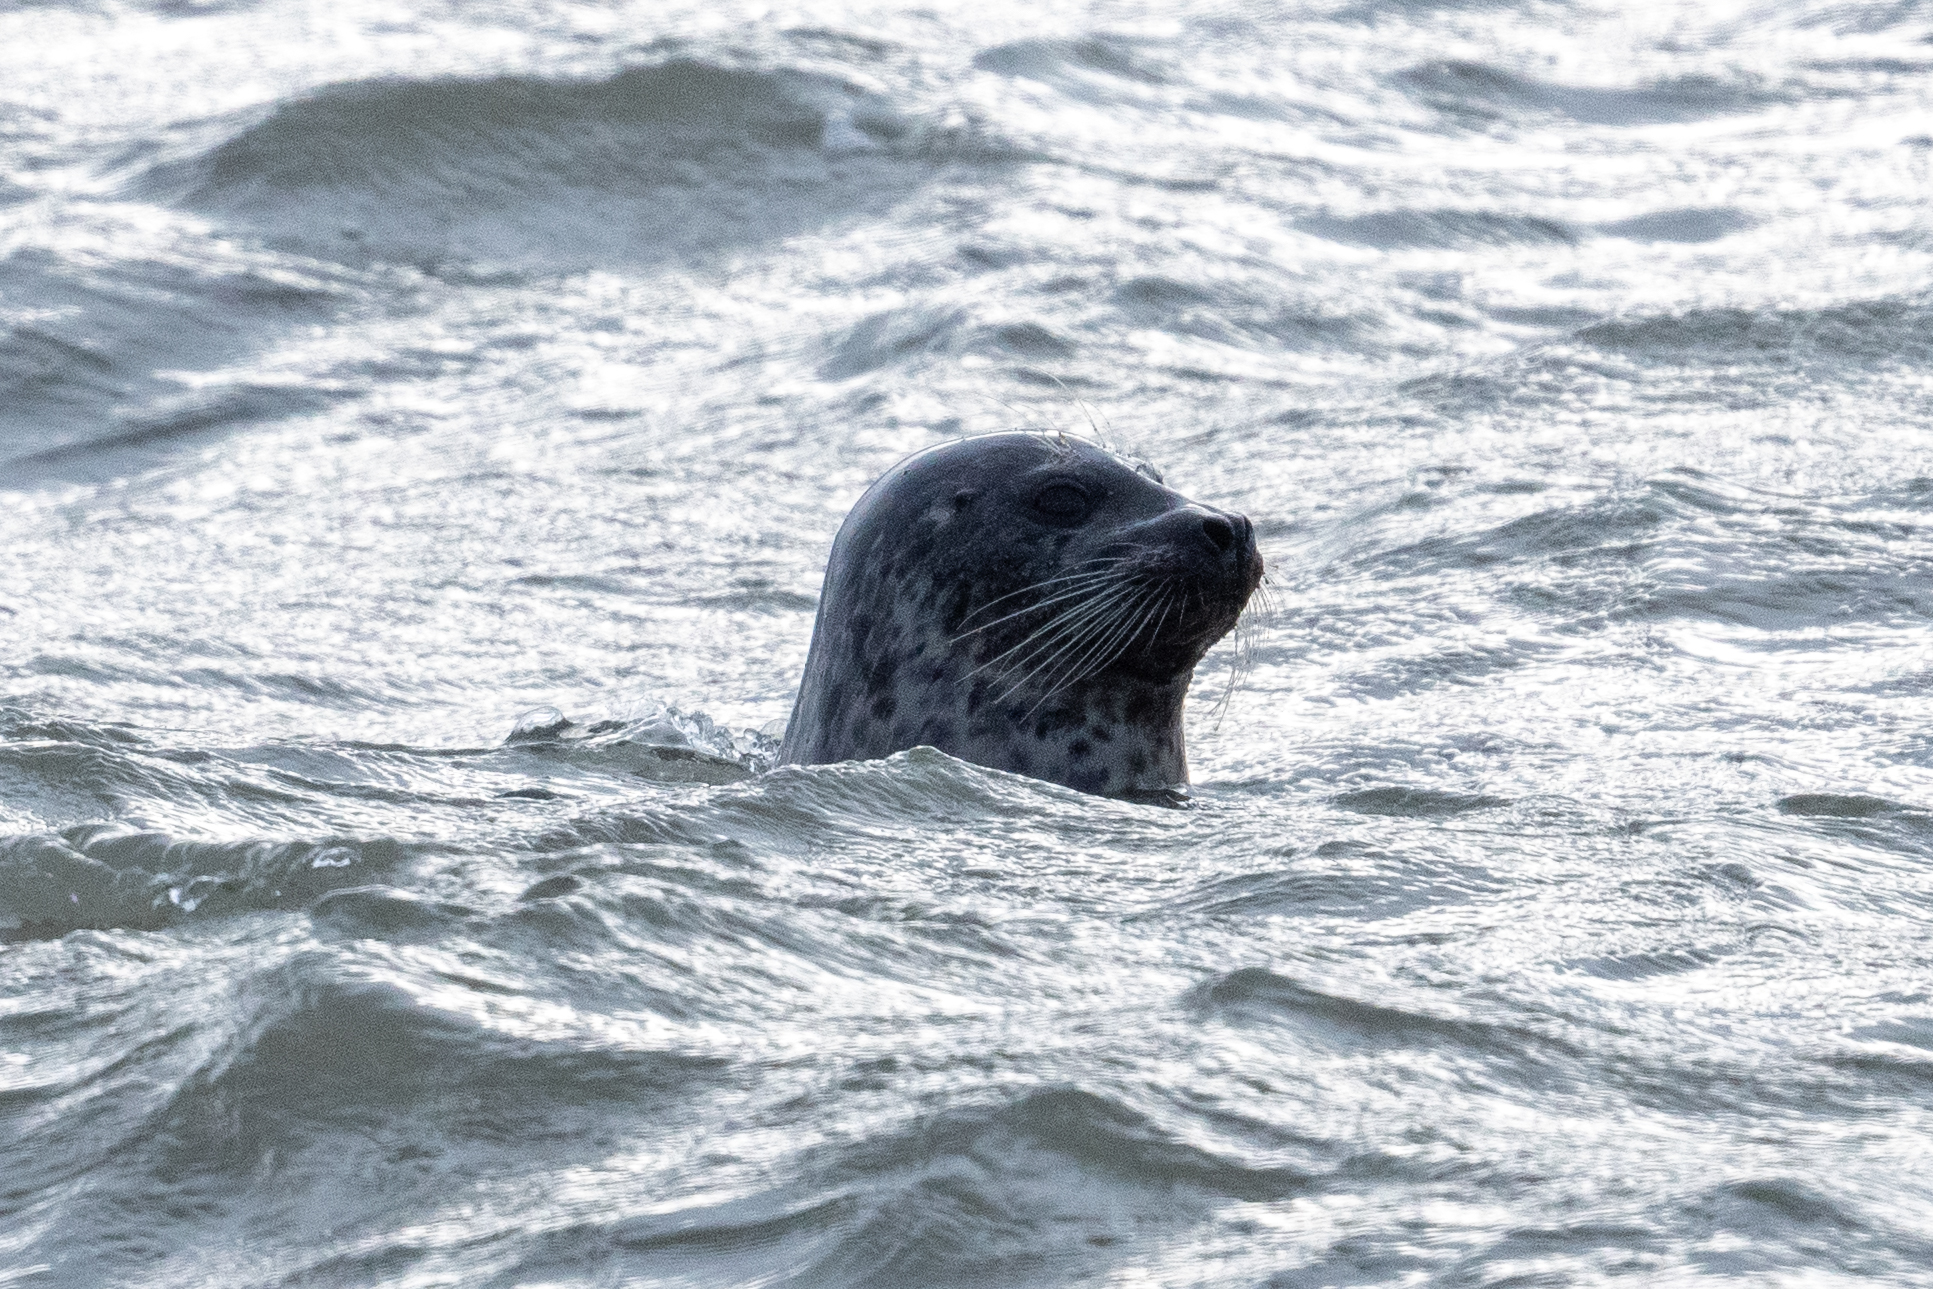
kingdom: Animalia
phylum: Chordata
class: Mammalia
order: Carnivora
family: Phocidae
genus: Phoca
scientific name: Phoca vitulina
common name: Harbor seal
